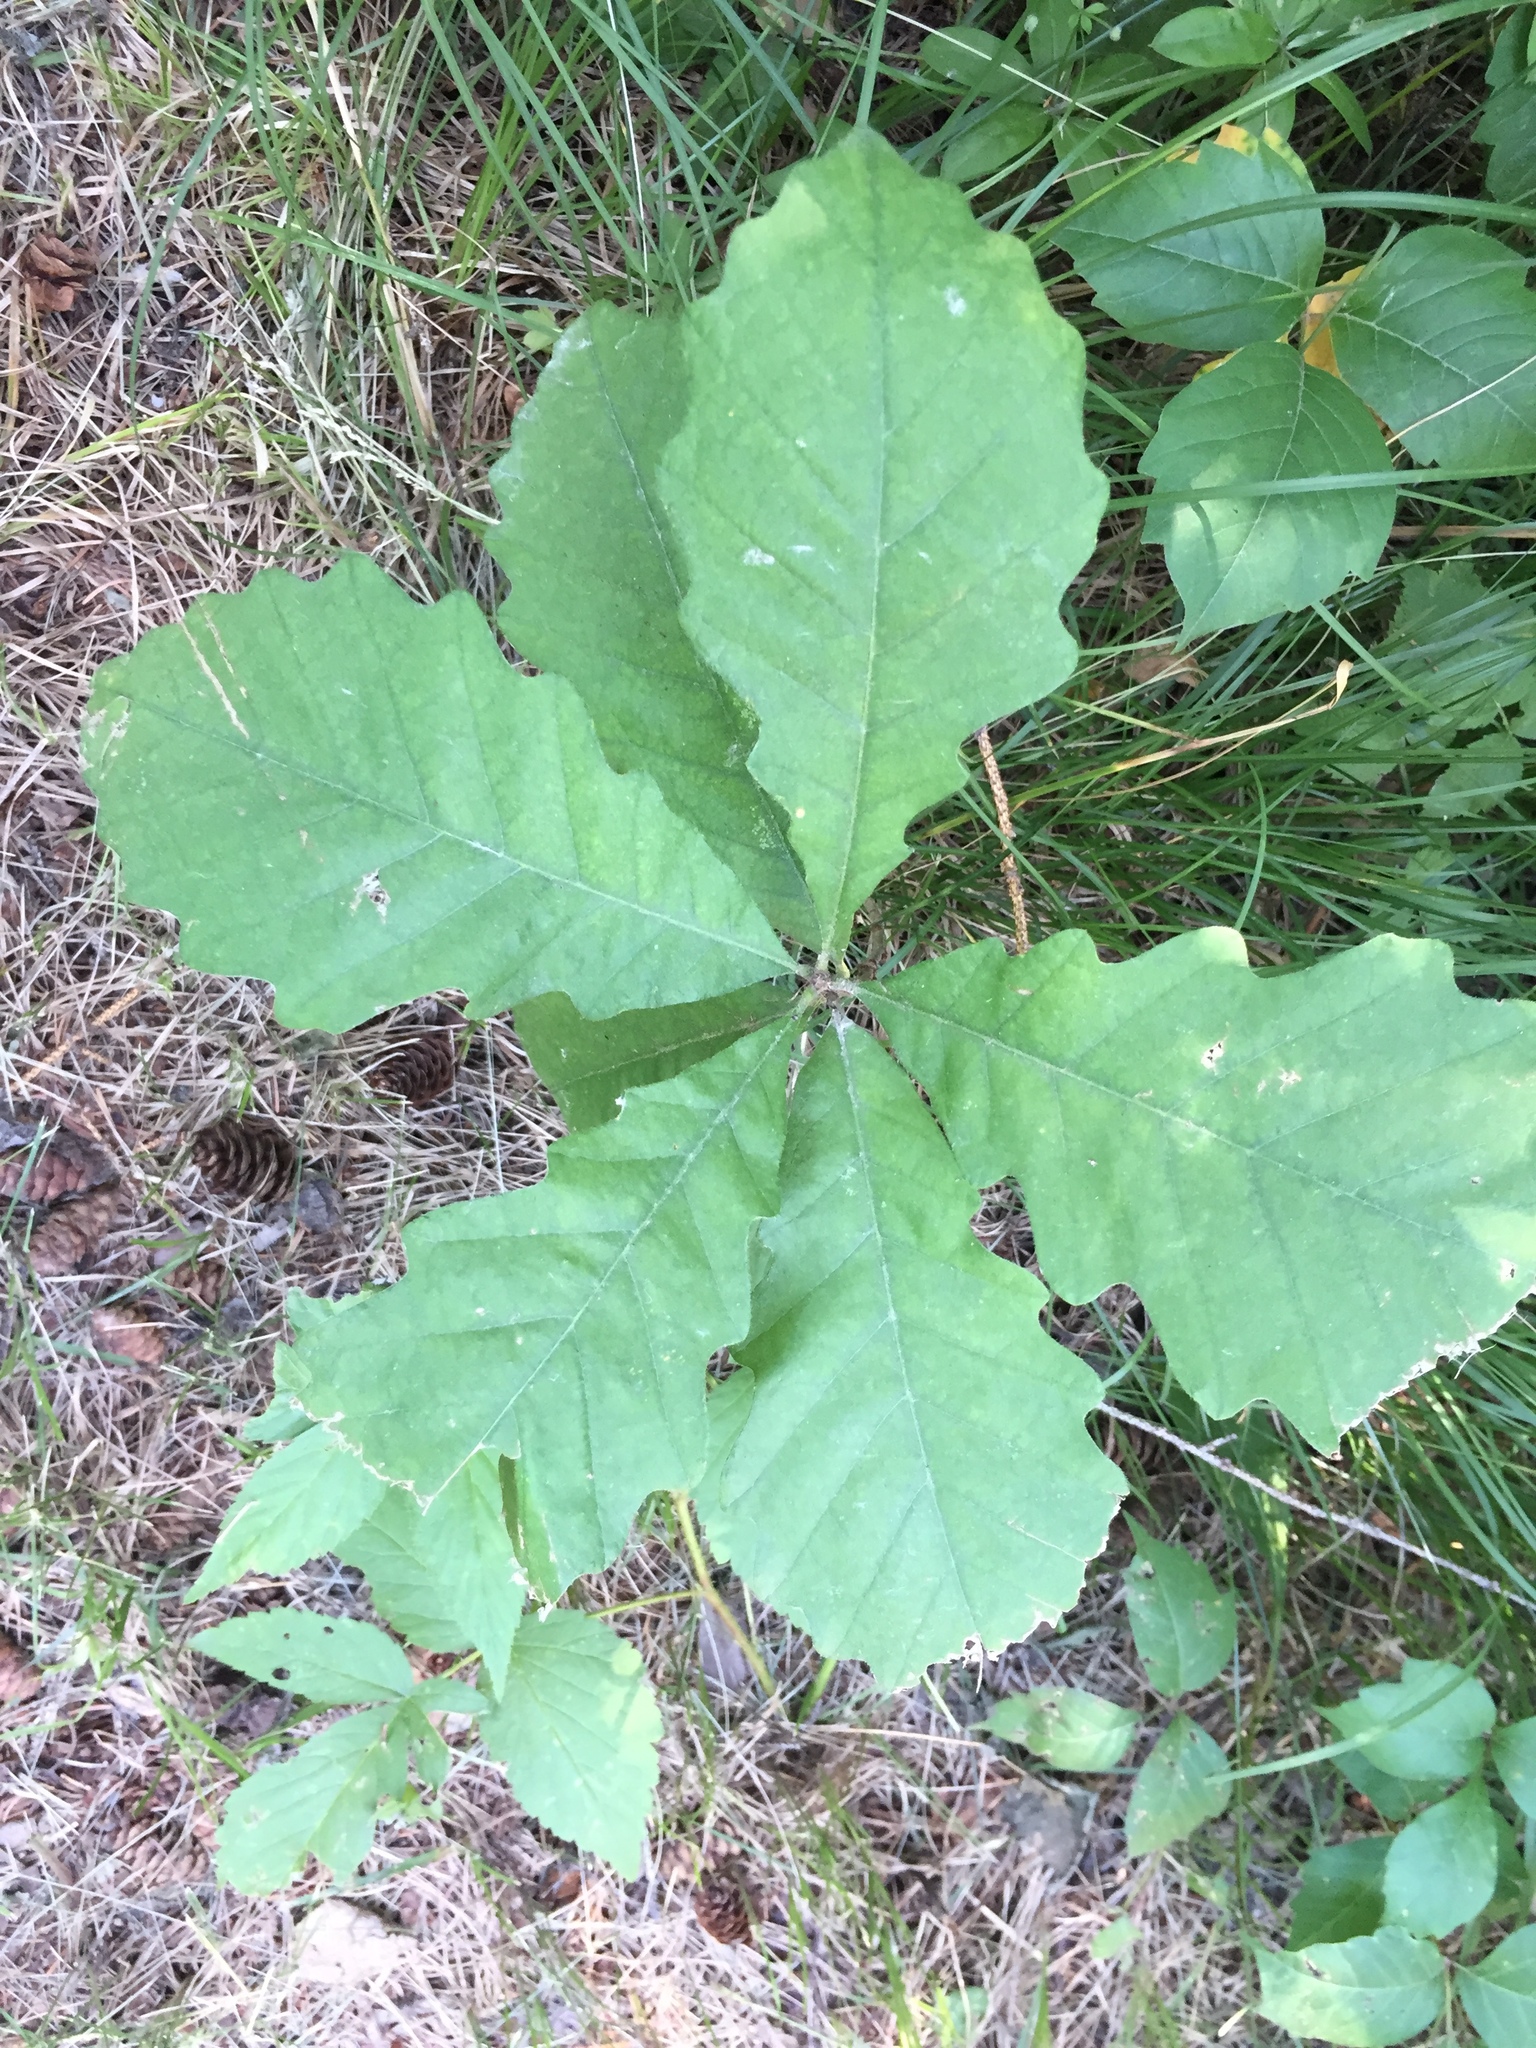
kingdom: Plantae
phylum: Tracheophyta
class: Magnoliopsida
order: Fagales
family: Fagaceae
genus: Quercus
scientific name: Quercus macrocarpa
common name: Bur oak
